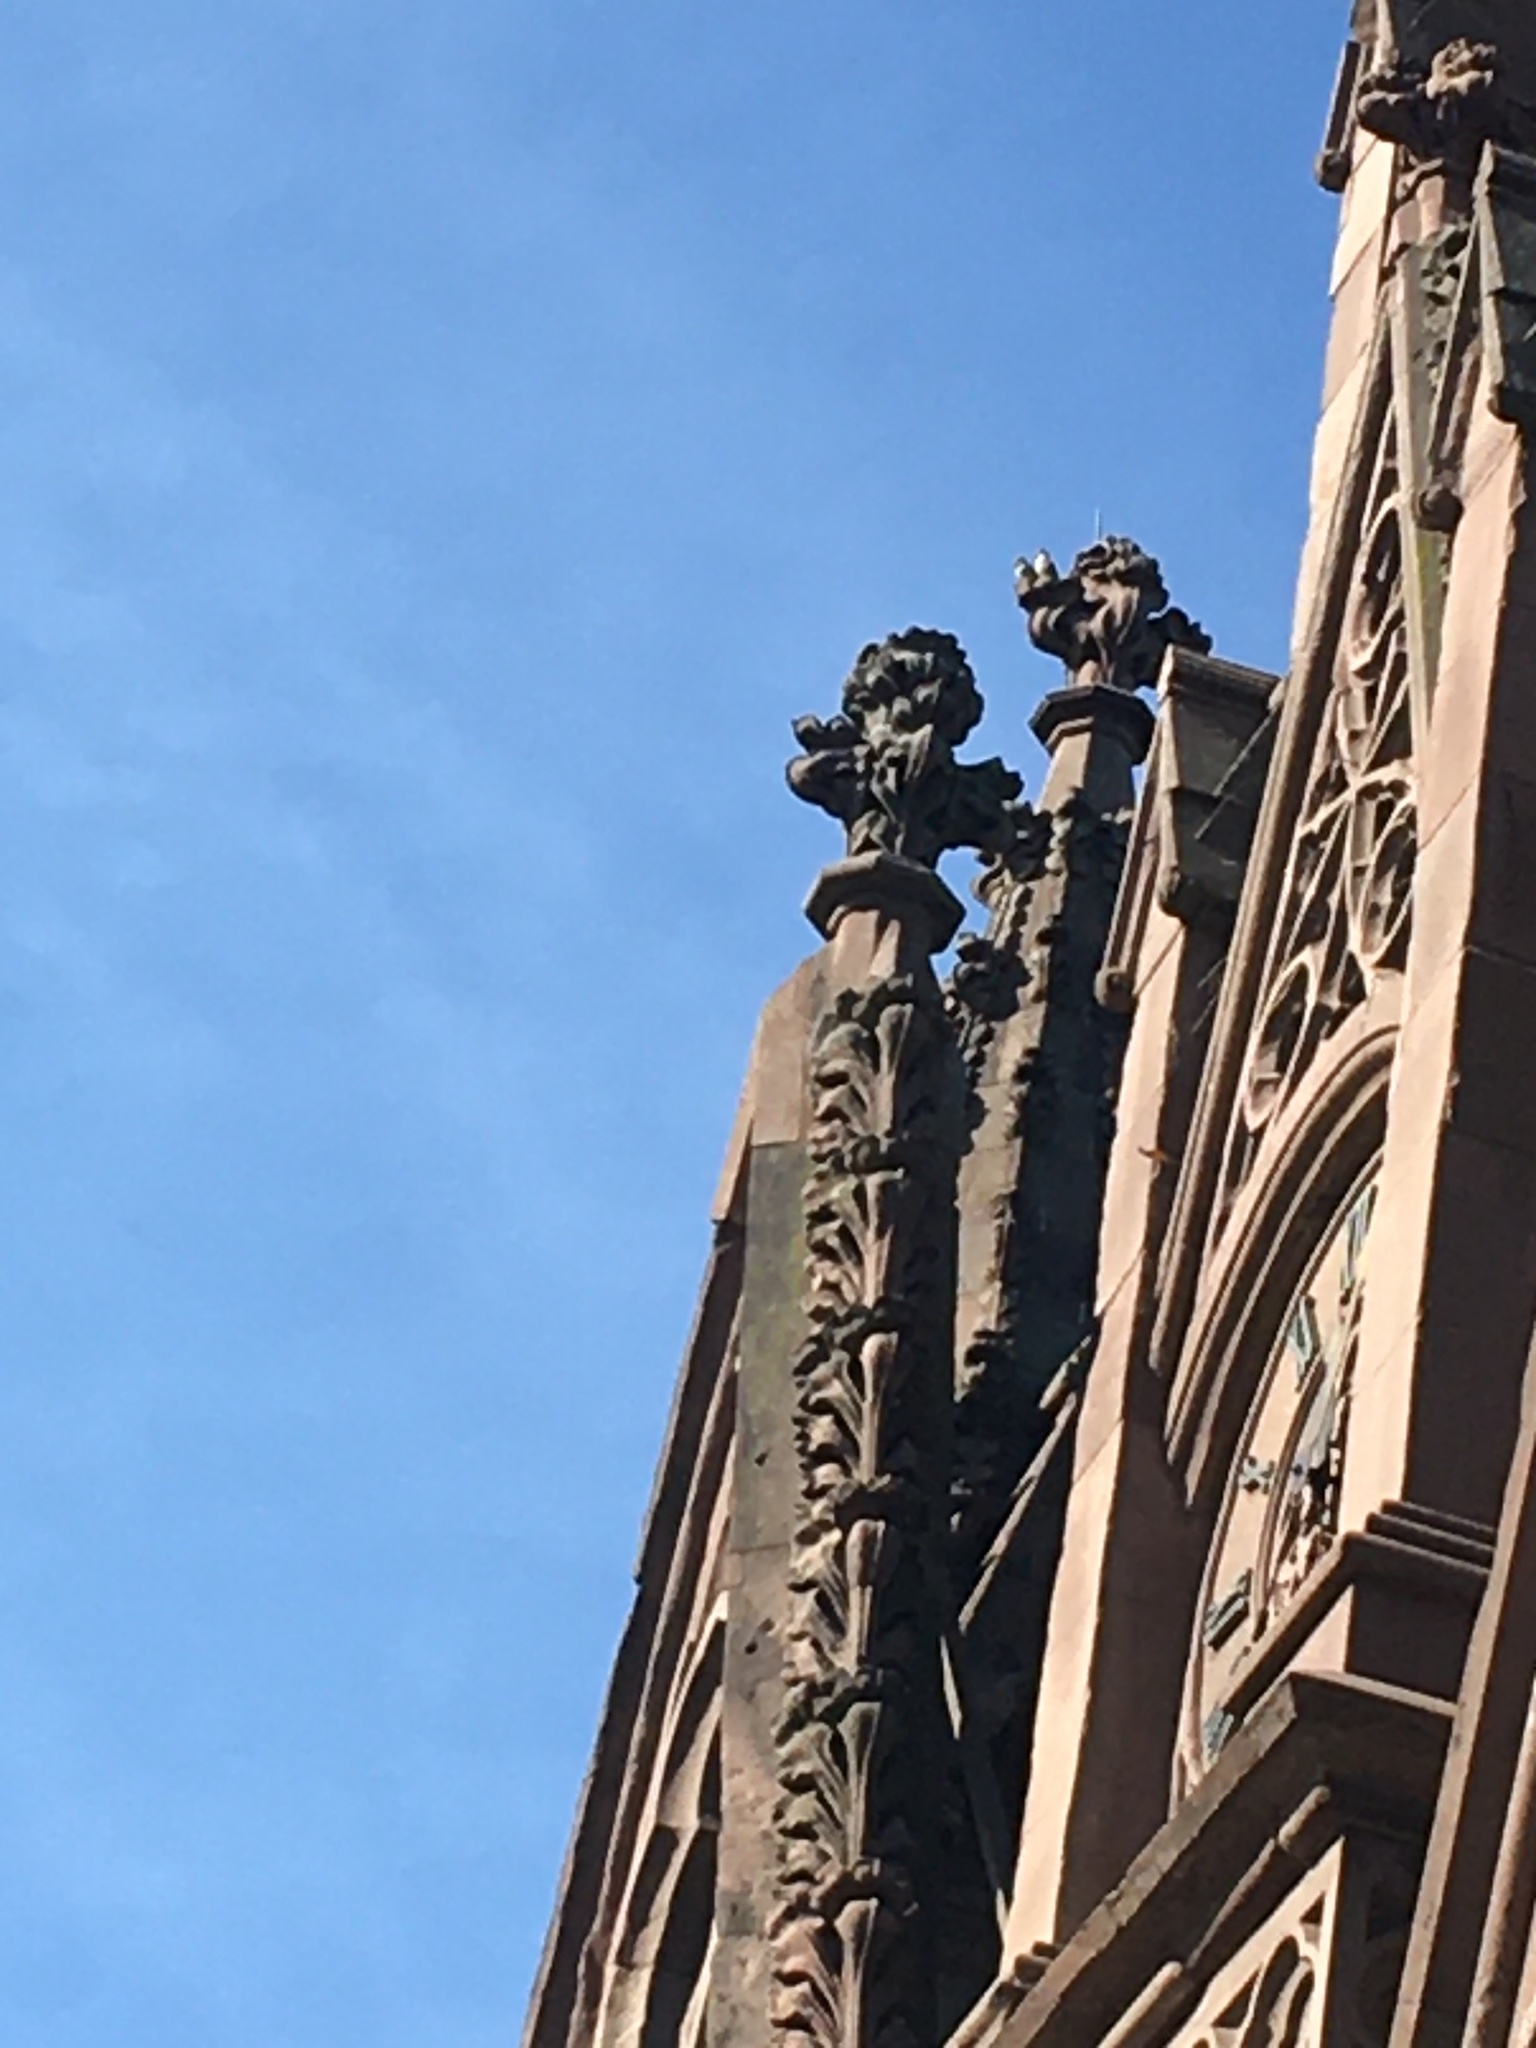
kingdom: Animalia
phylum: Chordata
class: Aves
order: Psittaciformes
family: Psittacidae
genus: Myiopsitta
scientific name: Myiopsitta monachus
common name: Monk parakeet
